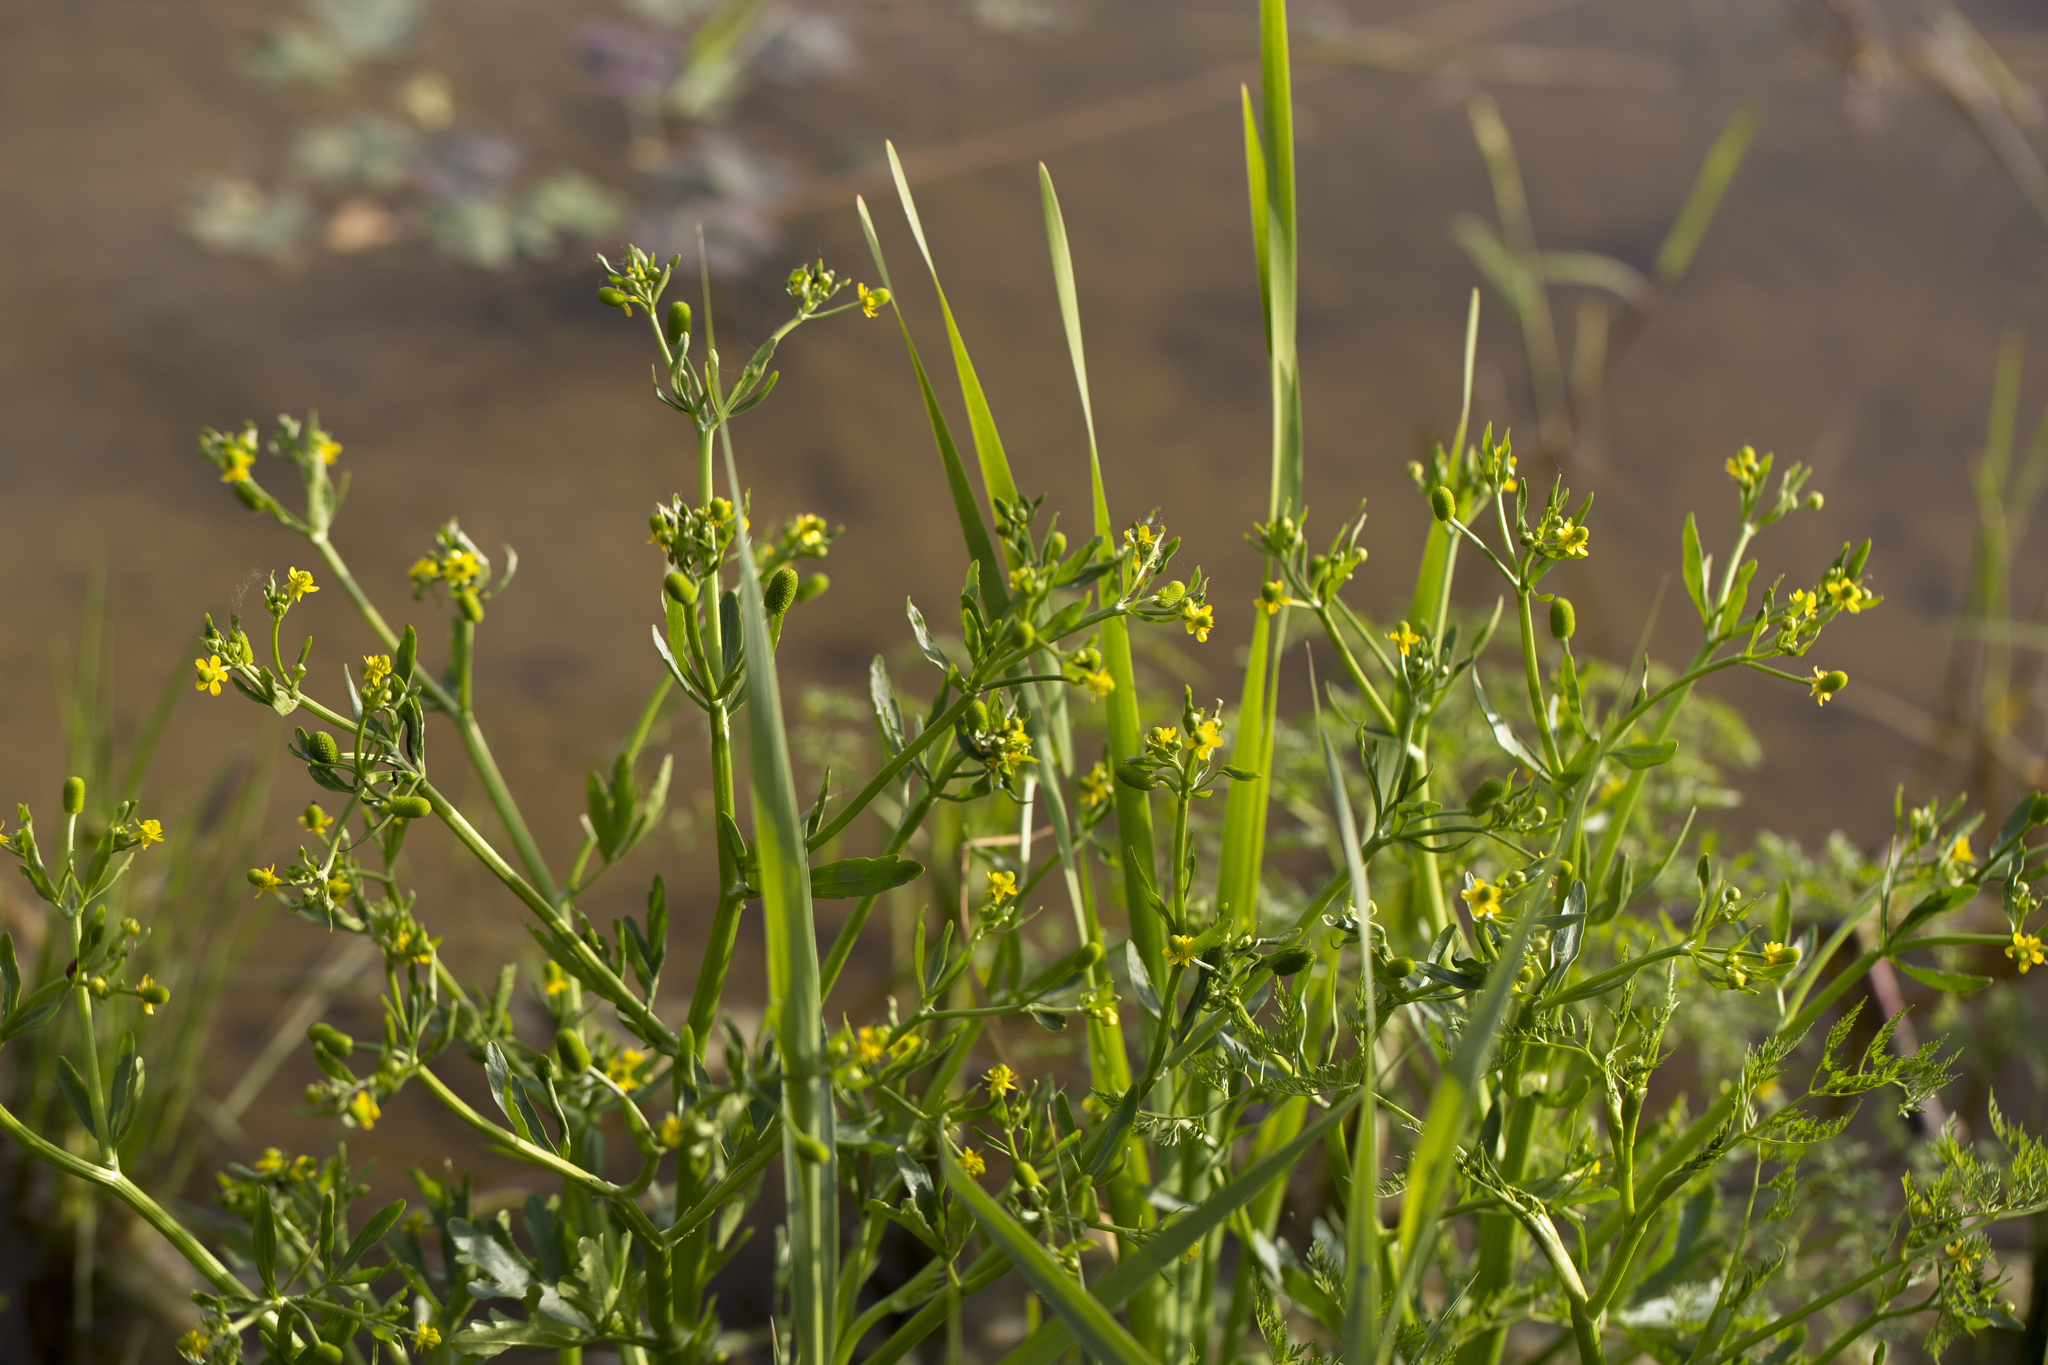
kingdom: Plantae
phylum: Tracheophyta
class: Magnoliopsida
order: Ranunculales
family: Ranunculaceae
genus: Ranunculus
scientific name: Ranunculus sceleratus
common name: Celery-leaved buttercup
